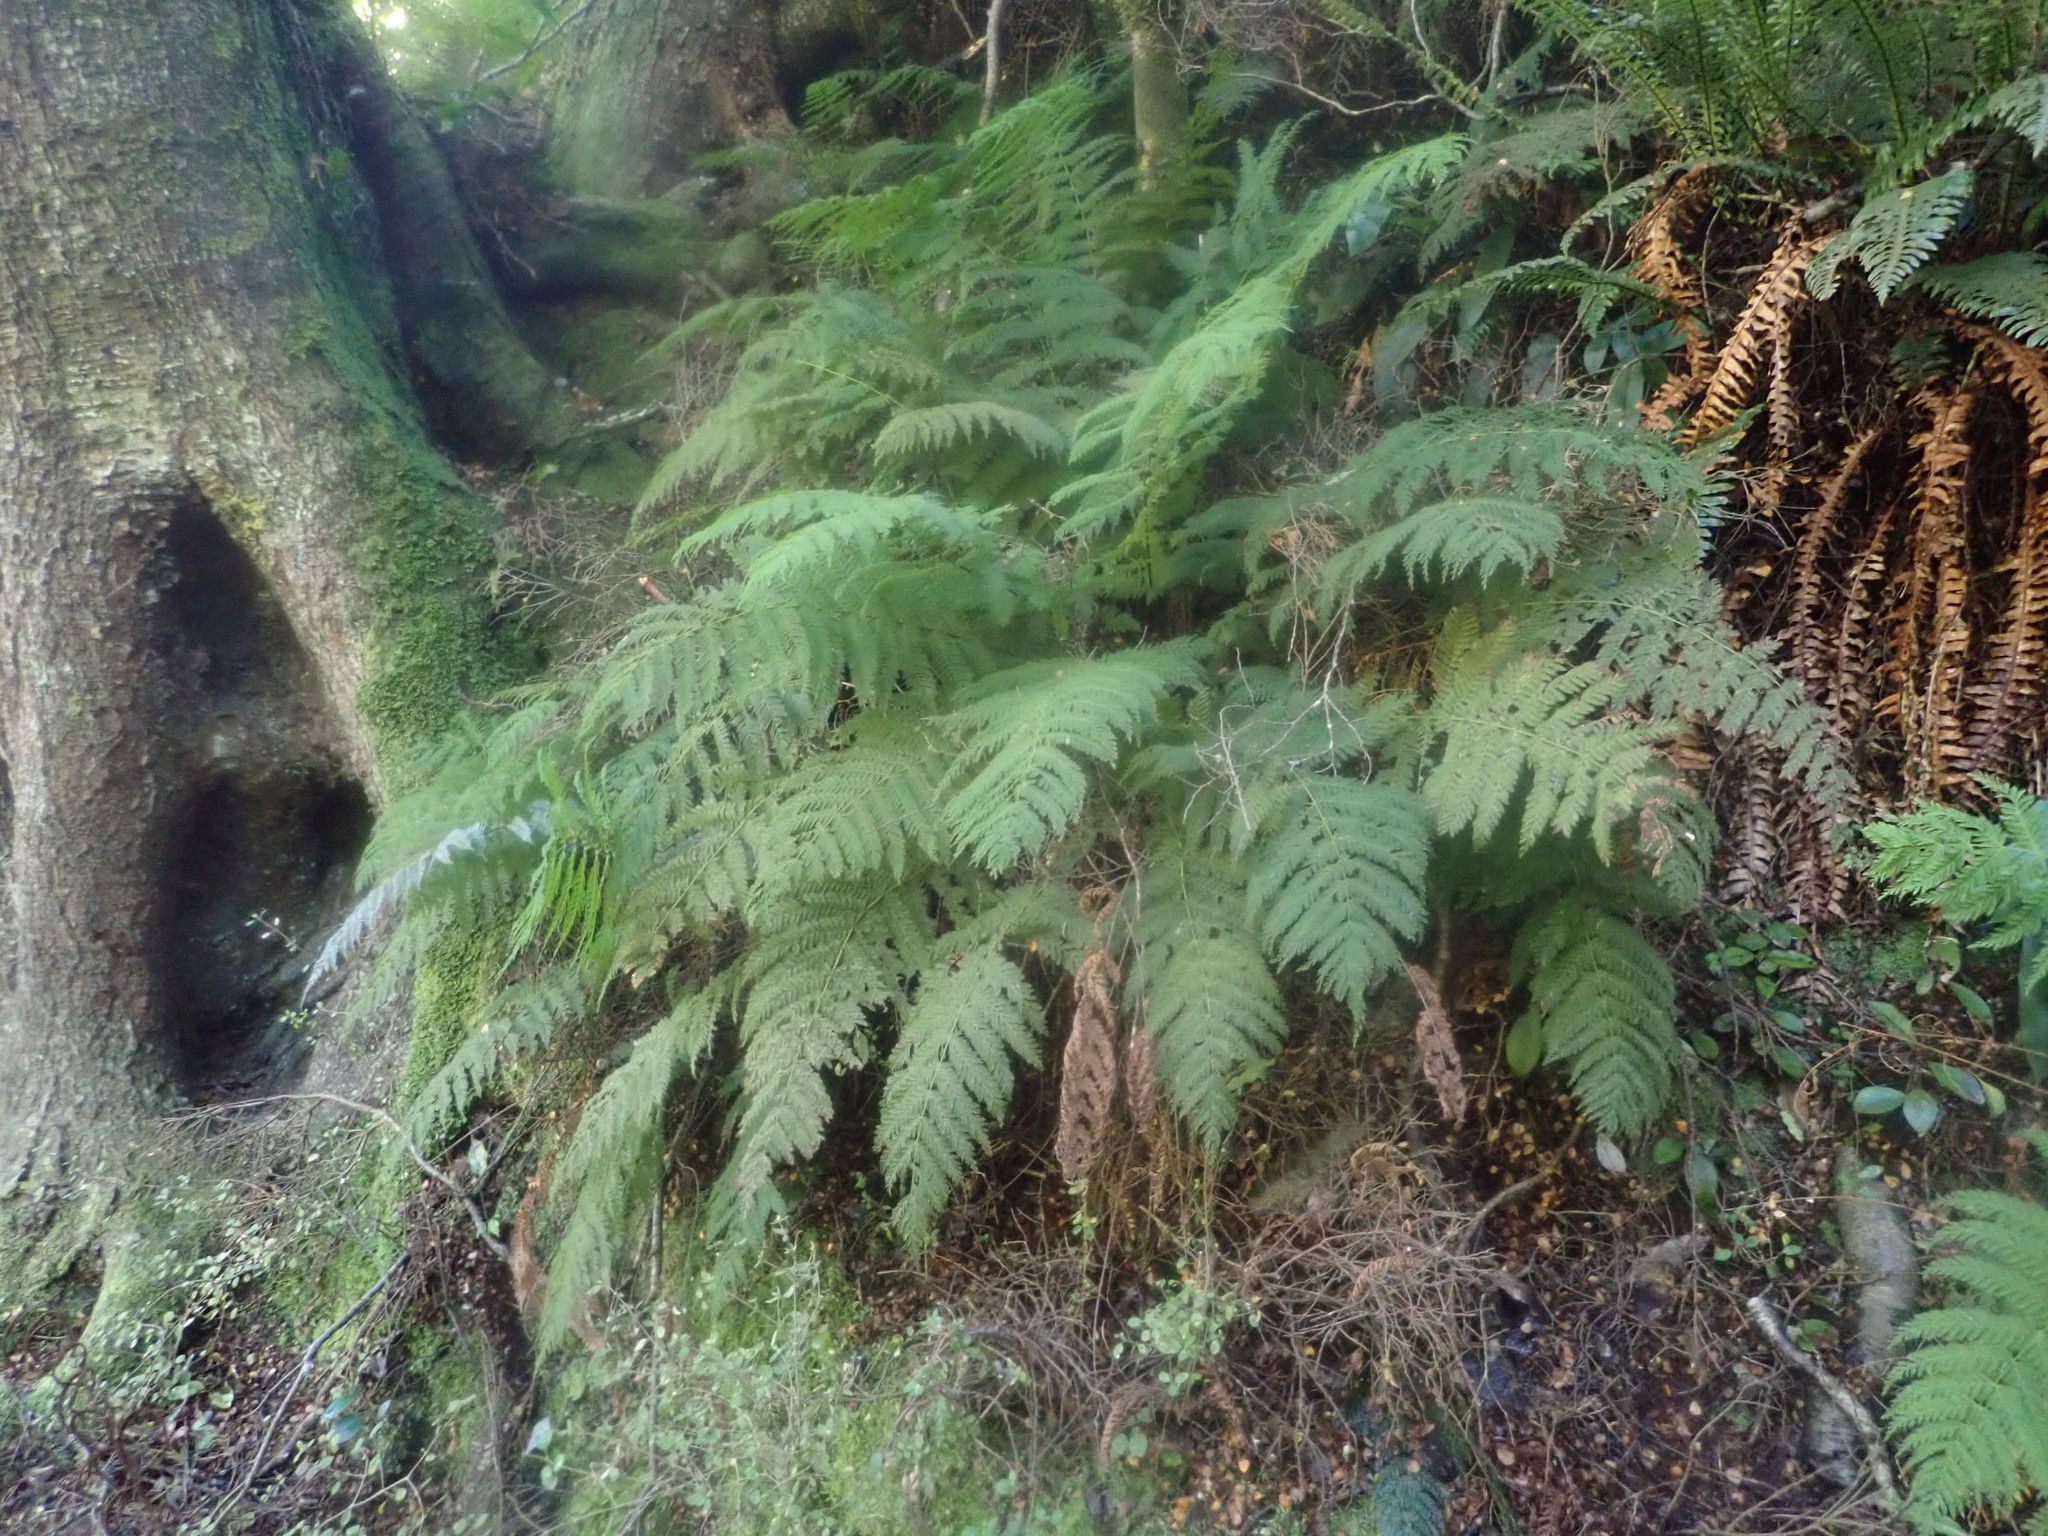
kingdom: Plantae
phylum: Tracheophyta
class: Polypodiopsida
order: Osmundales
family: Osmundaceae
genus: Leptopteris
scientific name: Leptopteris hymenophylloides
